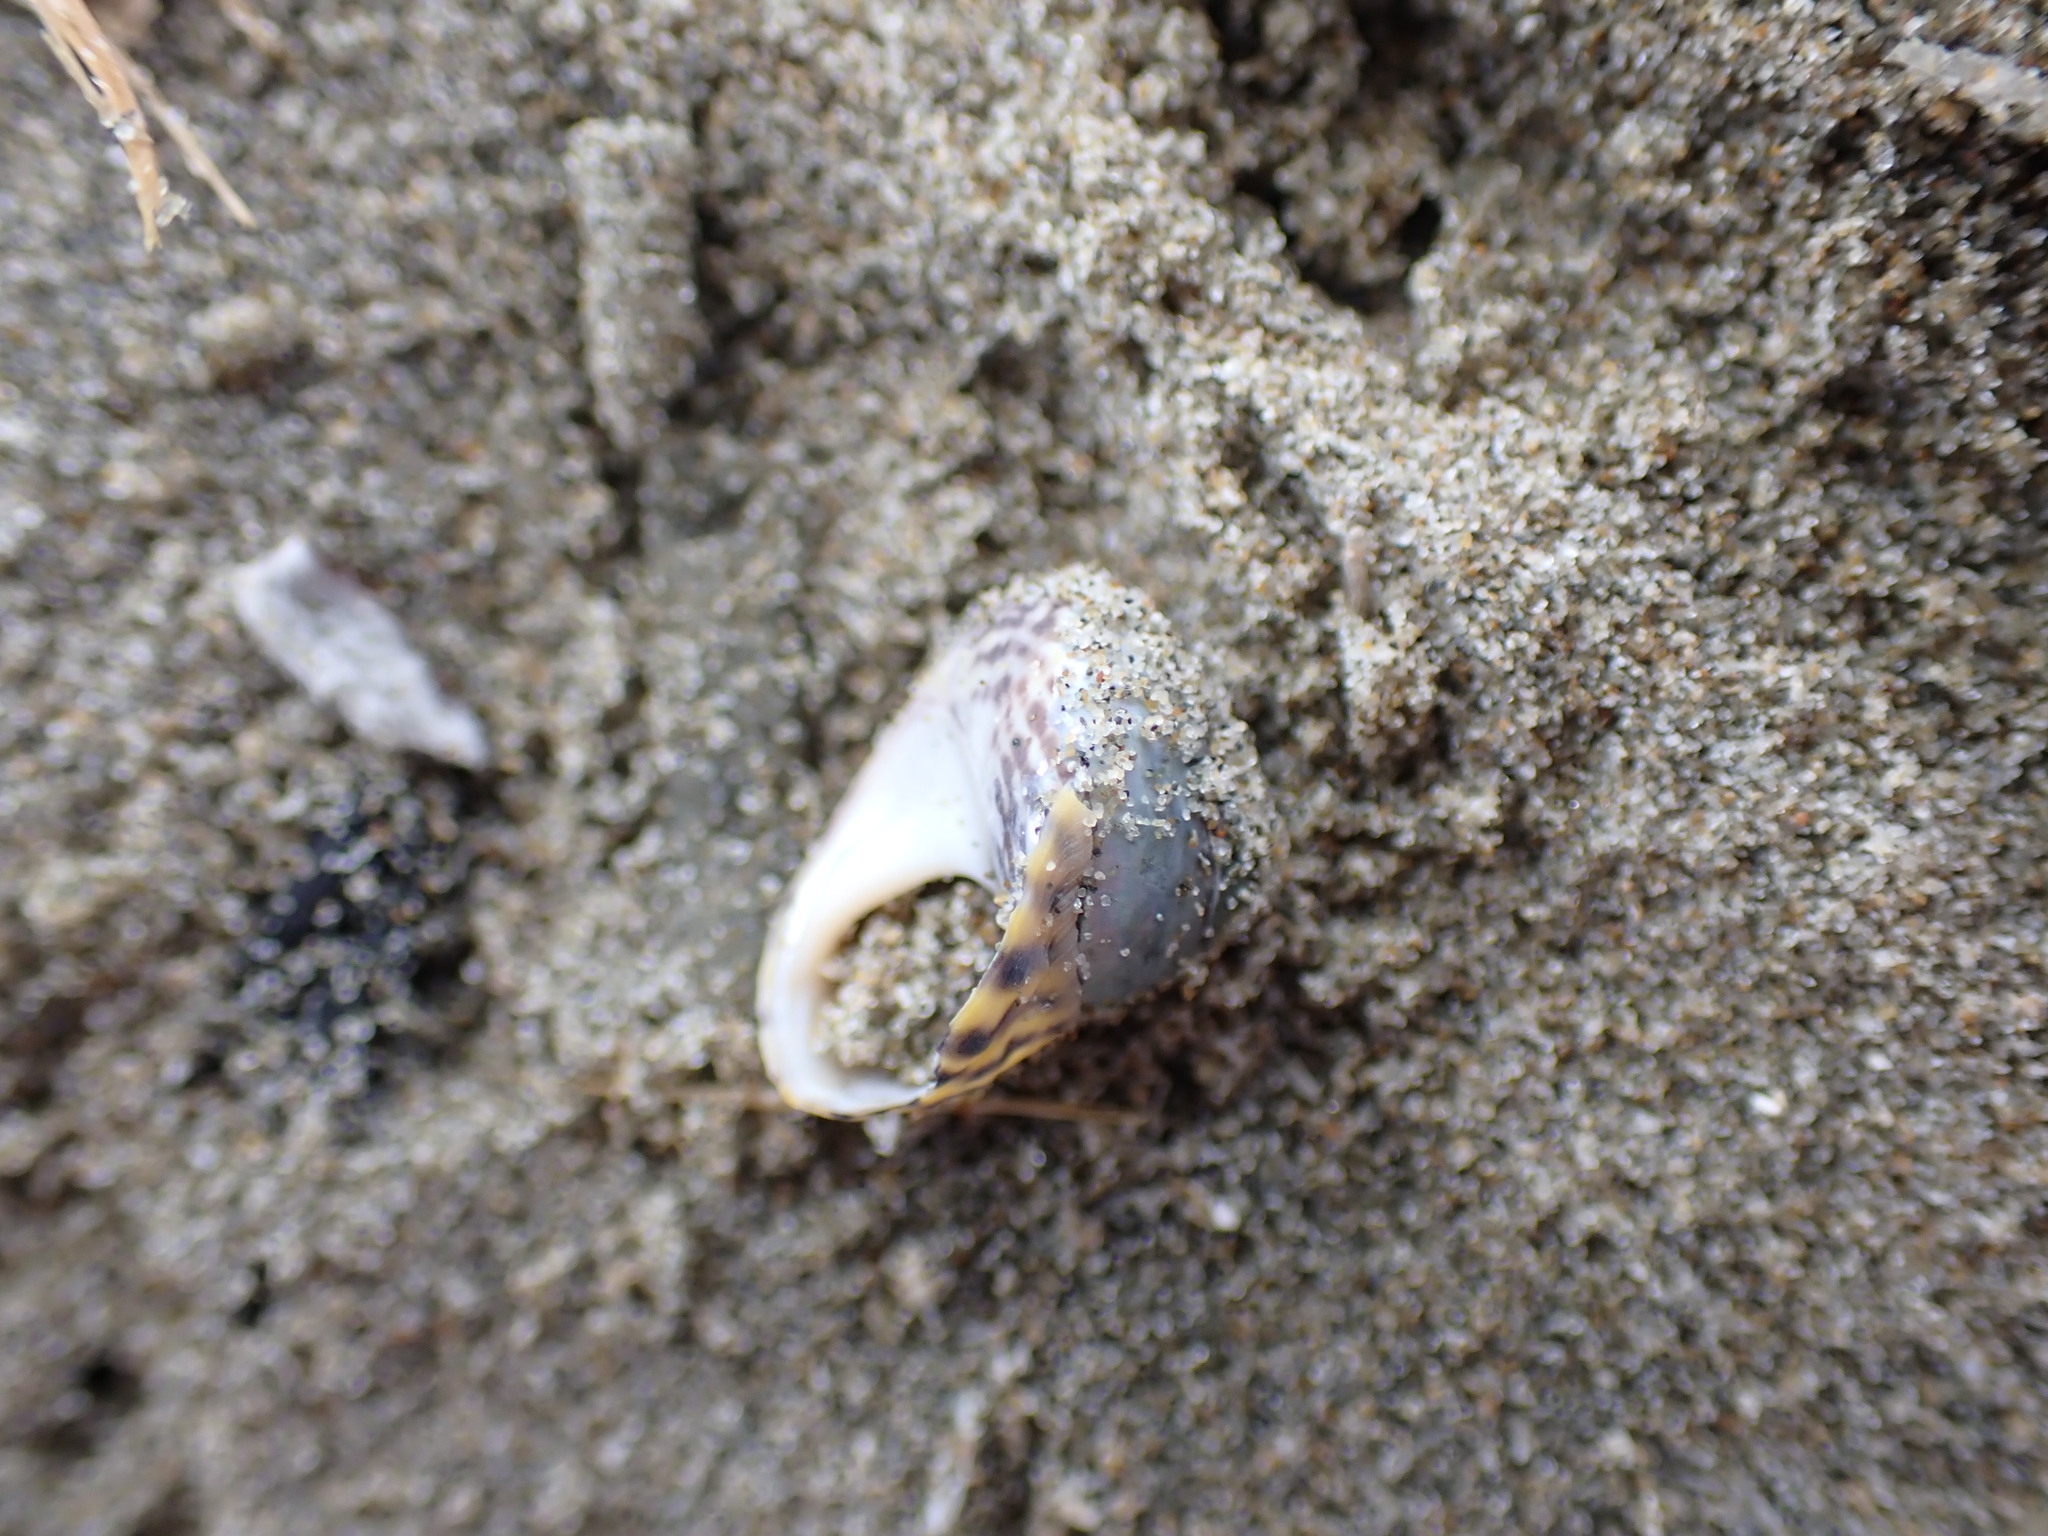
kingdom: Animalia
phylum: Mollusca
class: Gastropoda
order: Trochida
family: Trochidae
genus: Diloma
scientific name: Diloma subrostratum
